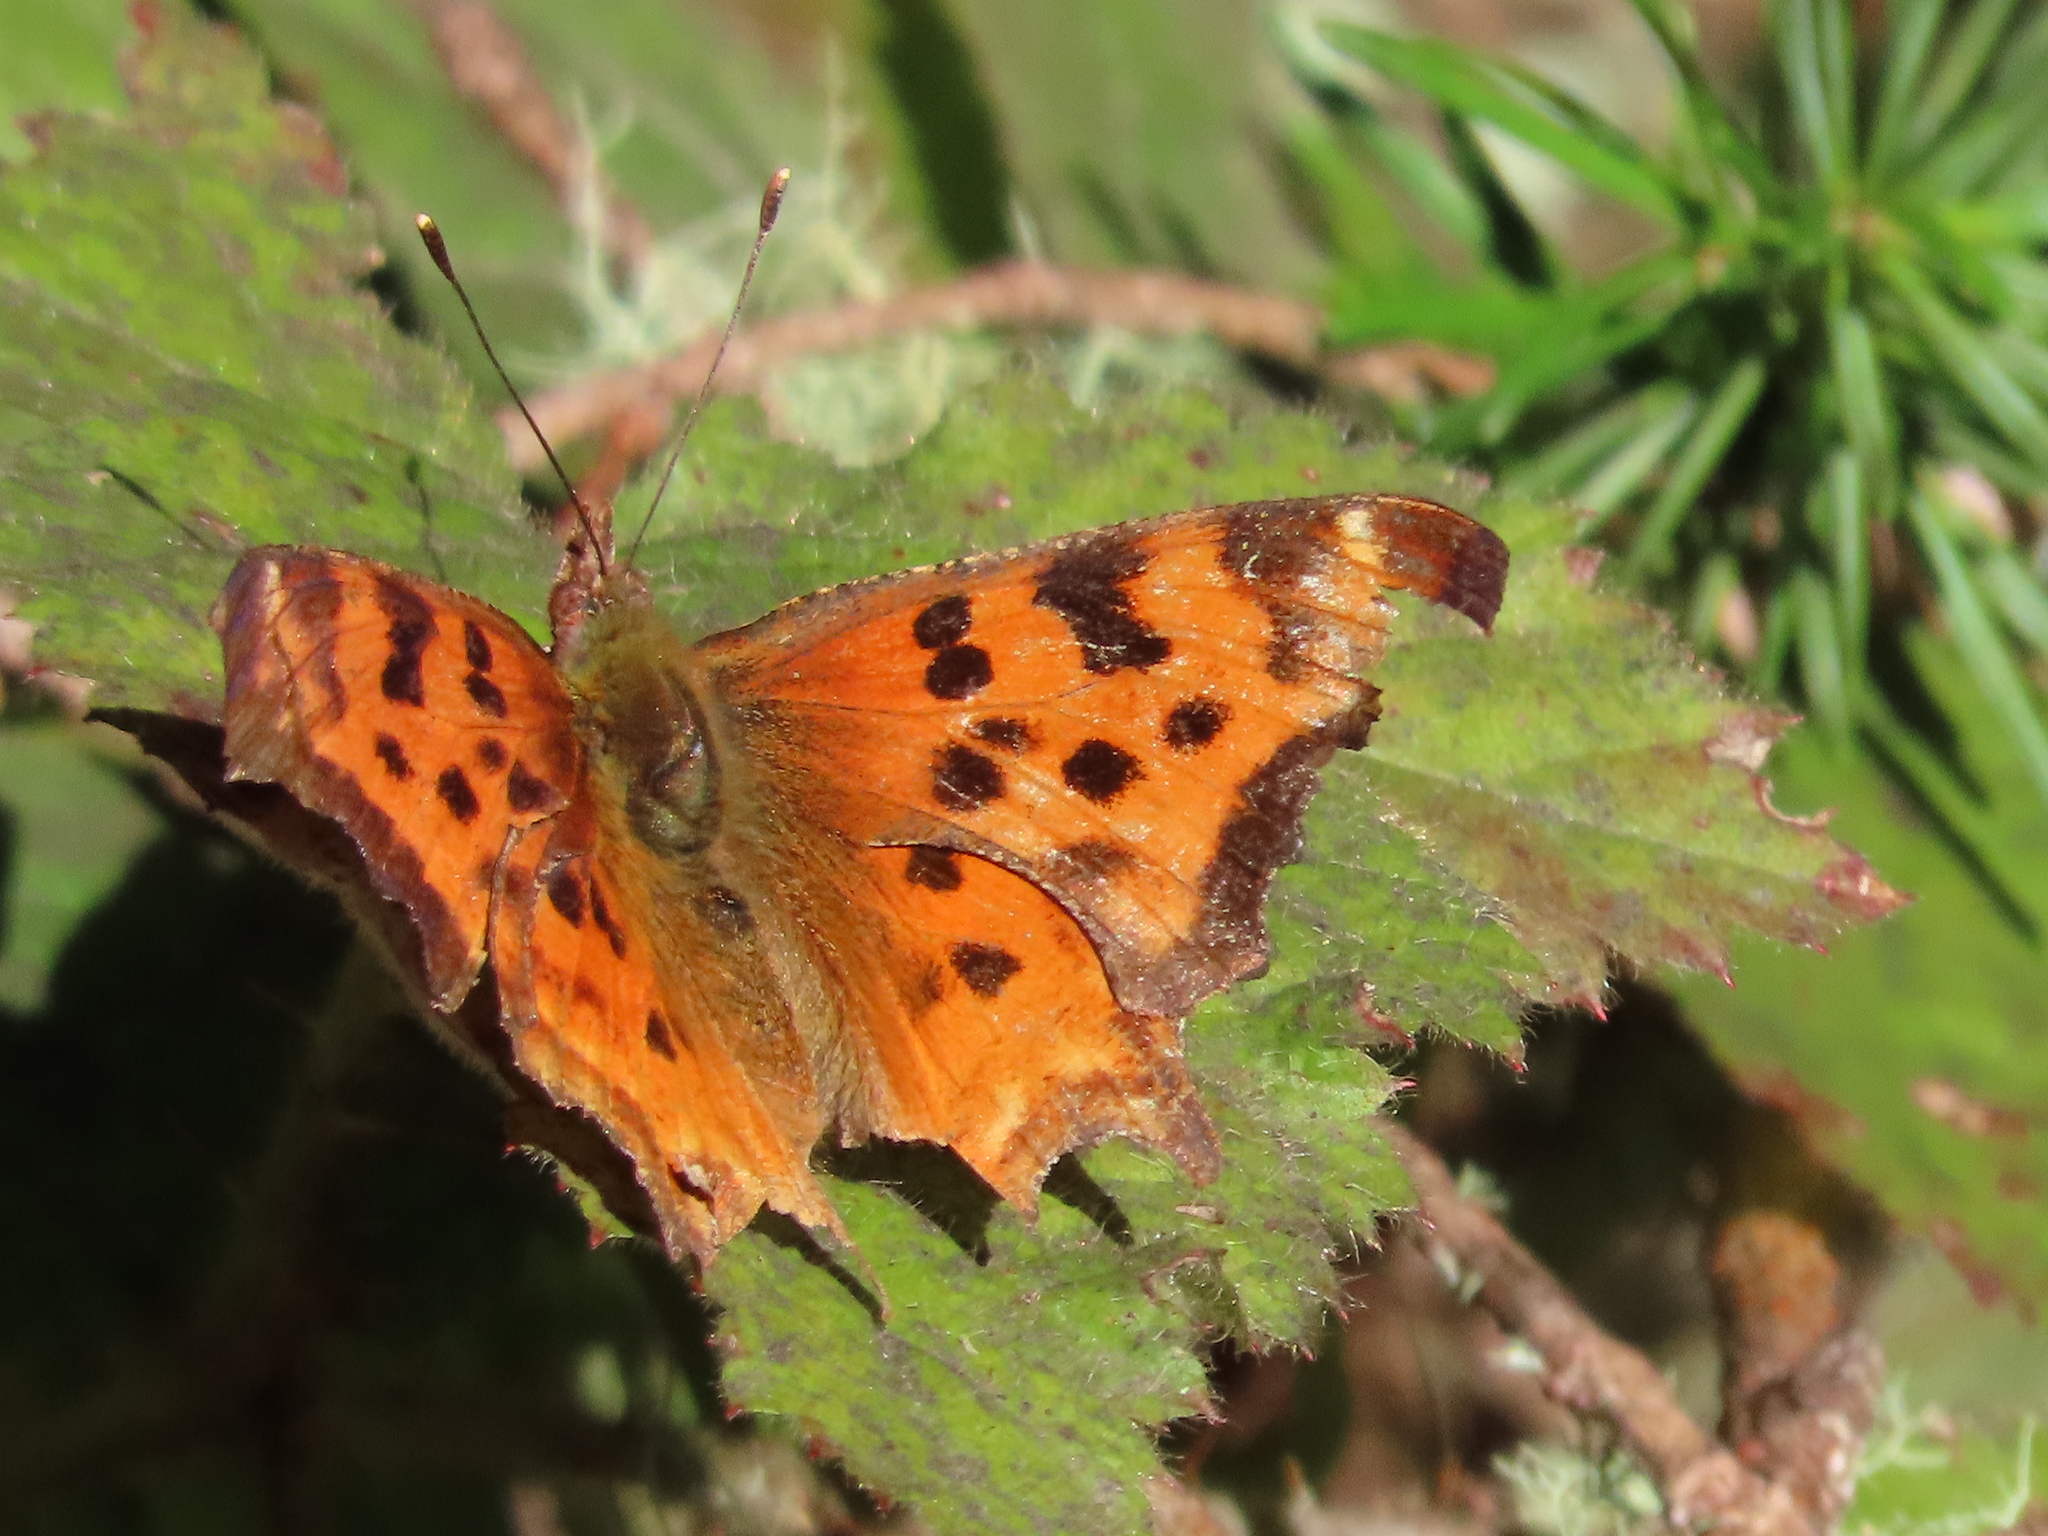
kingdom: Animalia
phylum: Arthropoda
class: Insecta
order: Lepidoptera
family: Nymphalidae
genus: Polygonia
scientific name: Polygonia satyrus
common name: Satyr angle wing
